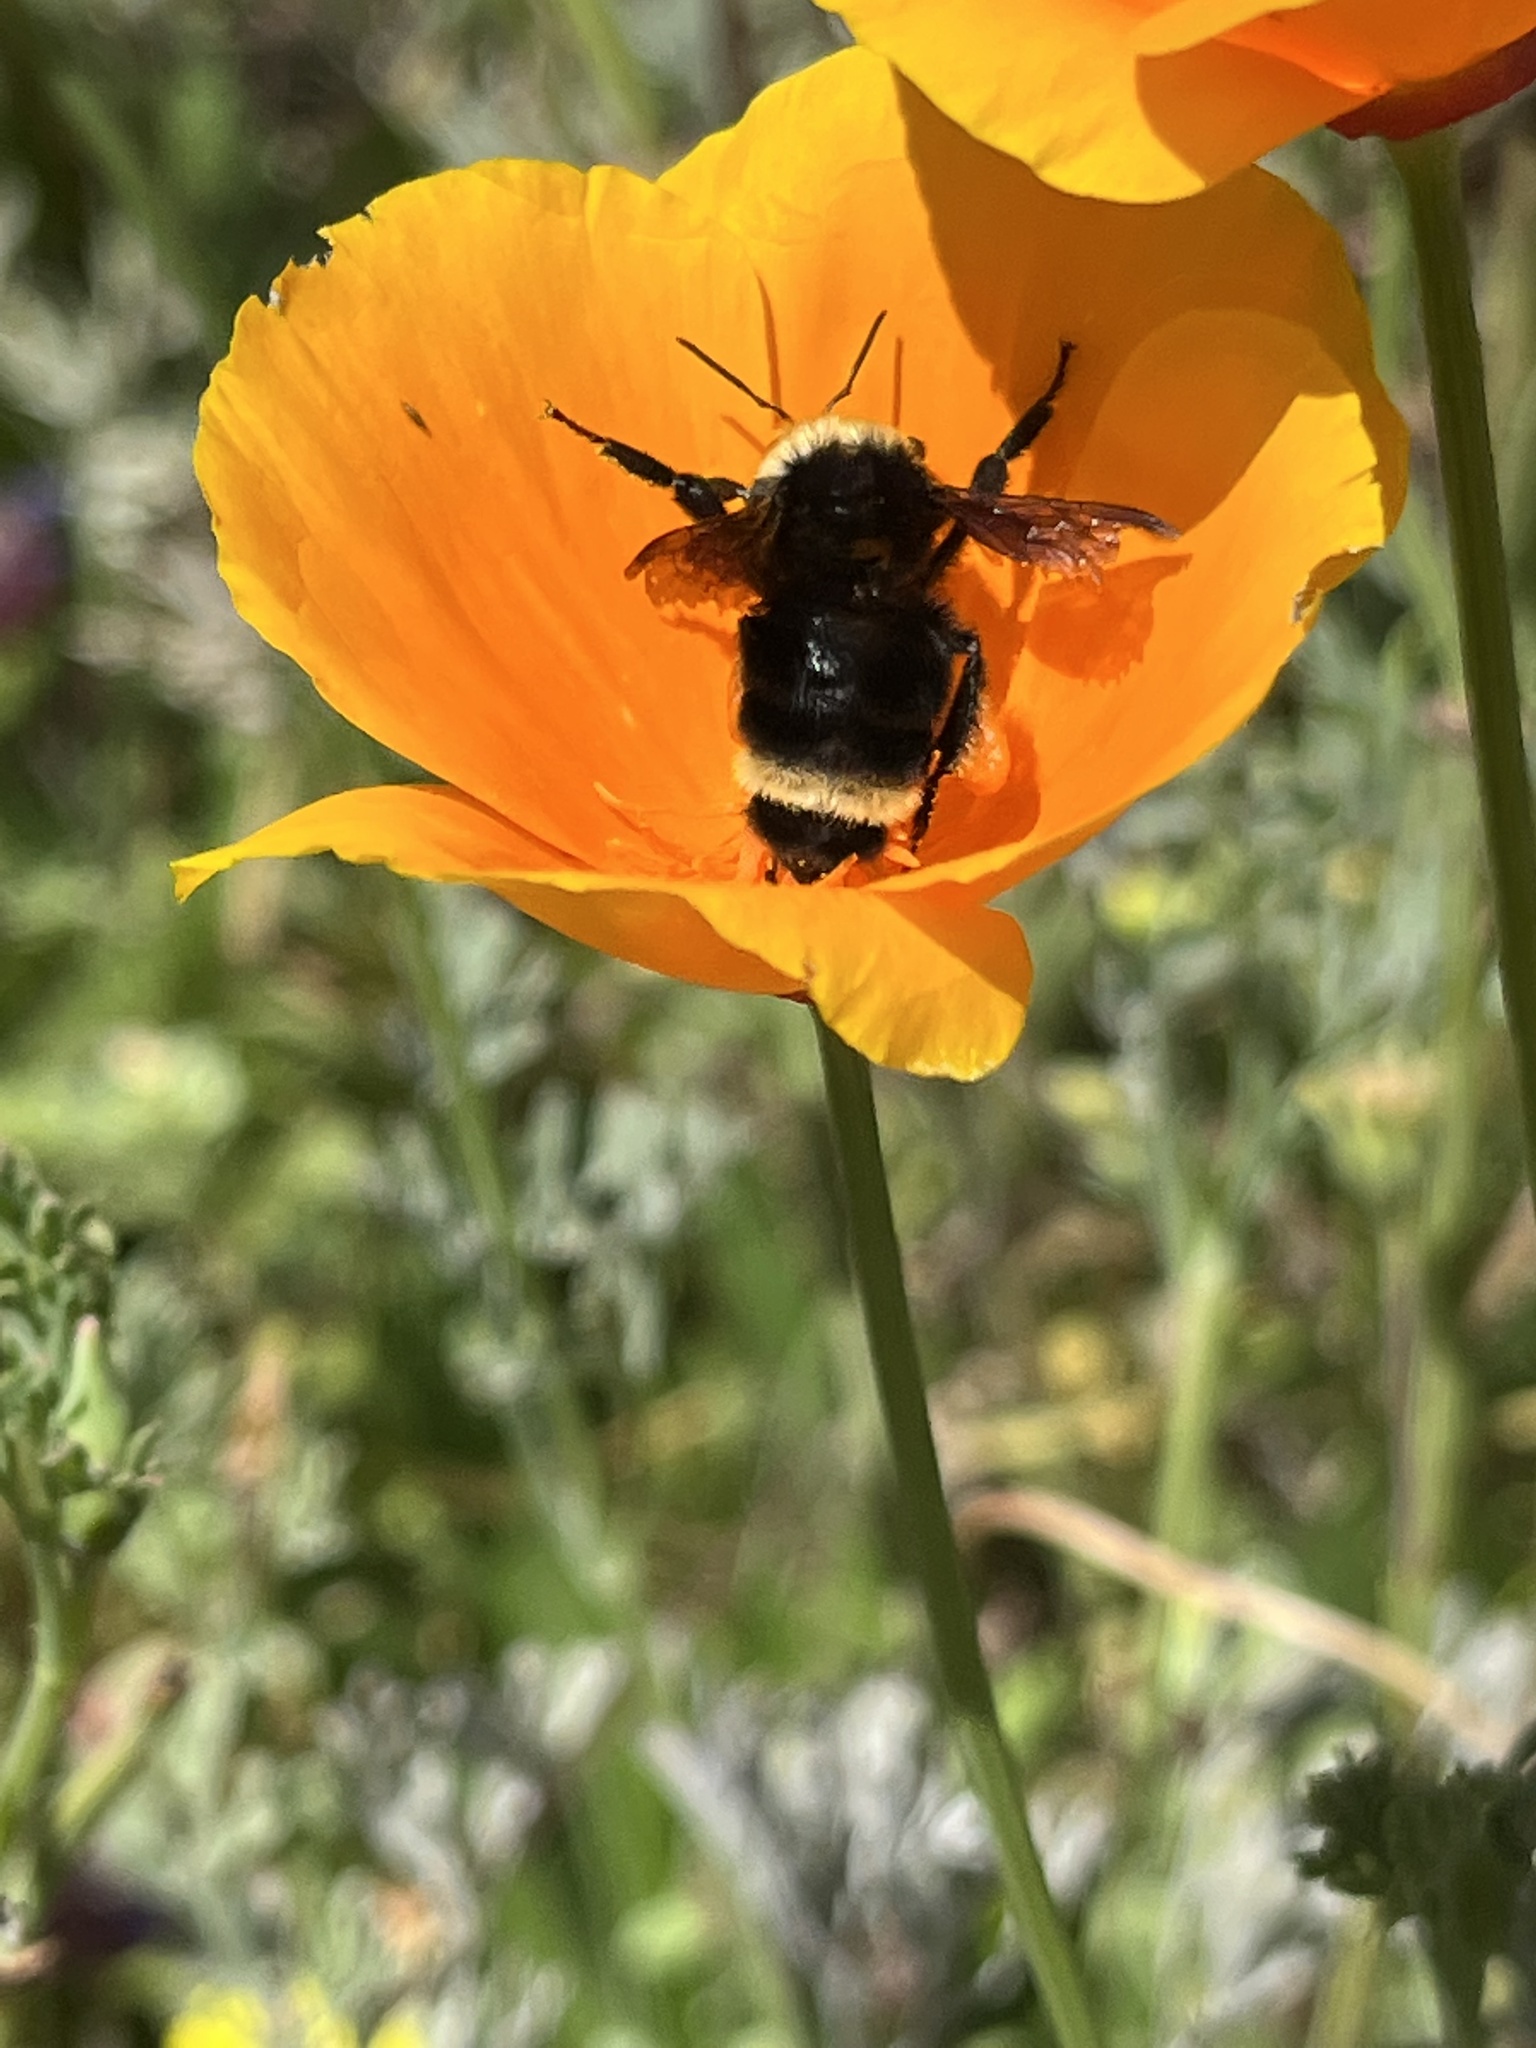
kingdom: Animalia
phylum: Arthropoda
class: Insecta
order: Hymenoptera
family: Apidae
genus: Bombus
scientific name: Bombus vosnesenskii
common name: Vosnesensky bumble bee
